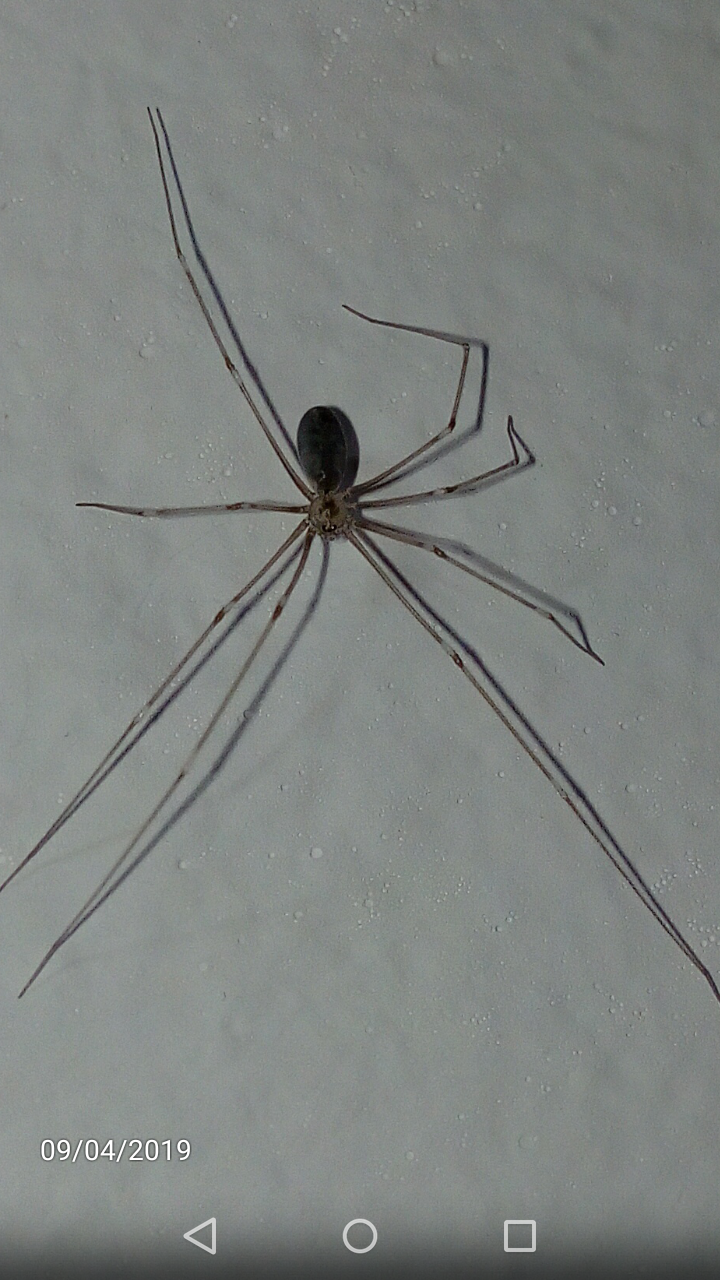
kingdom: Animalia
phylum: Arthropoda
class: Arachnida
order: Araneae
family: Pholcidae
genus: Pholcus
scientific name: Pholcus phalangioides
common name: Longbodied cellar spider
